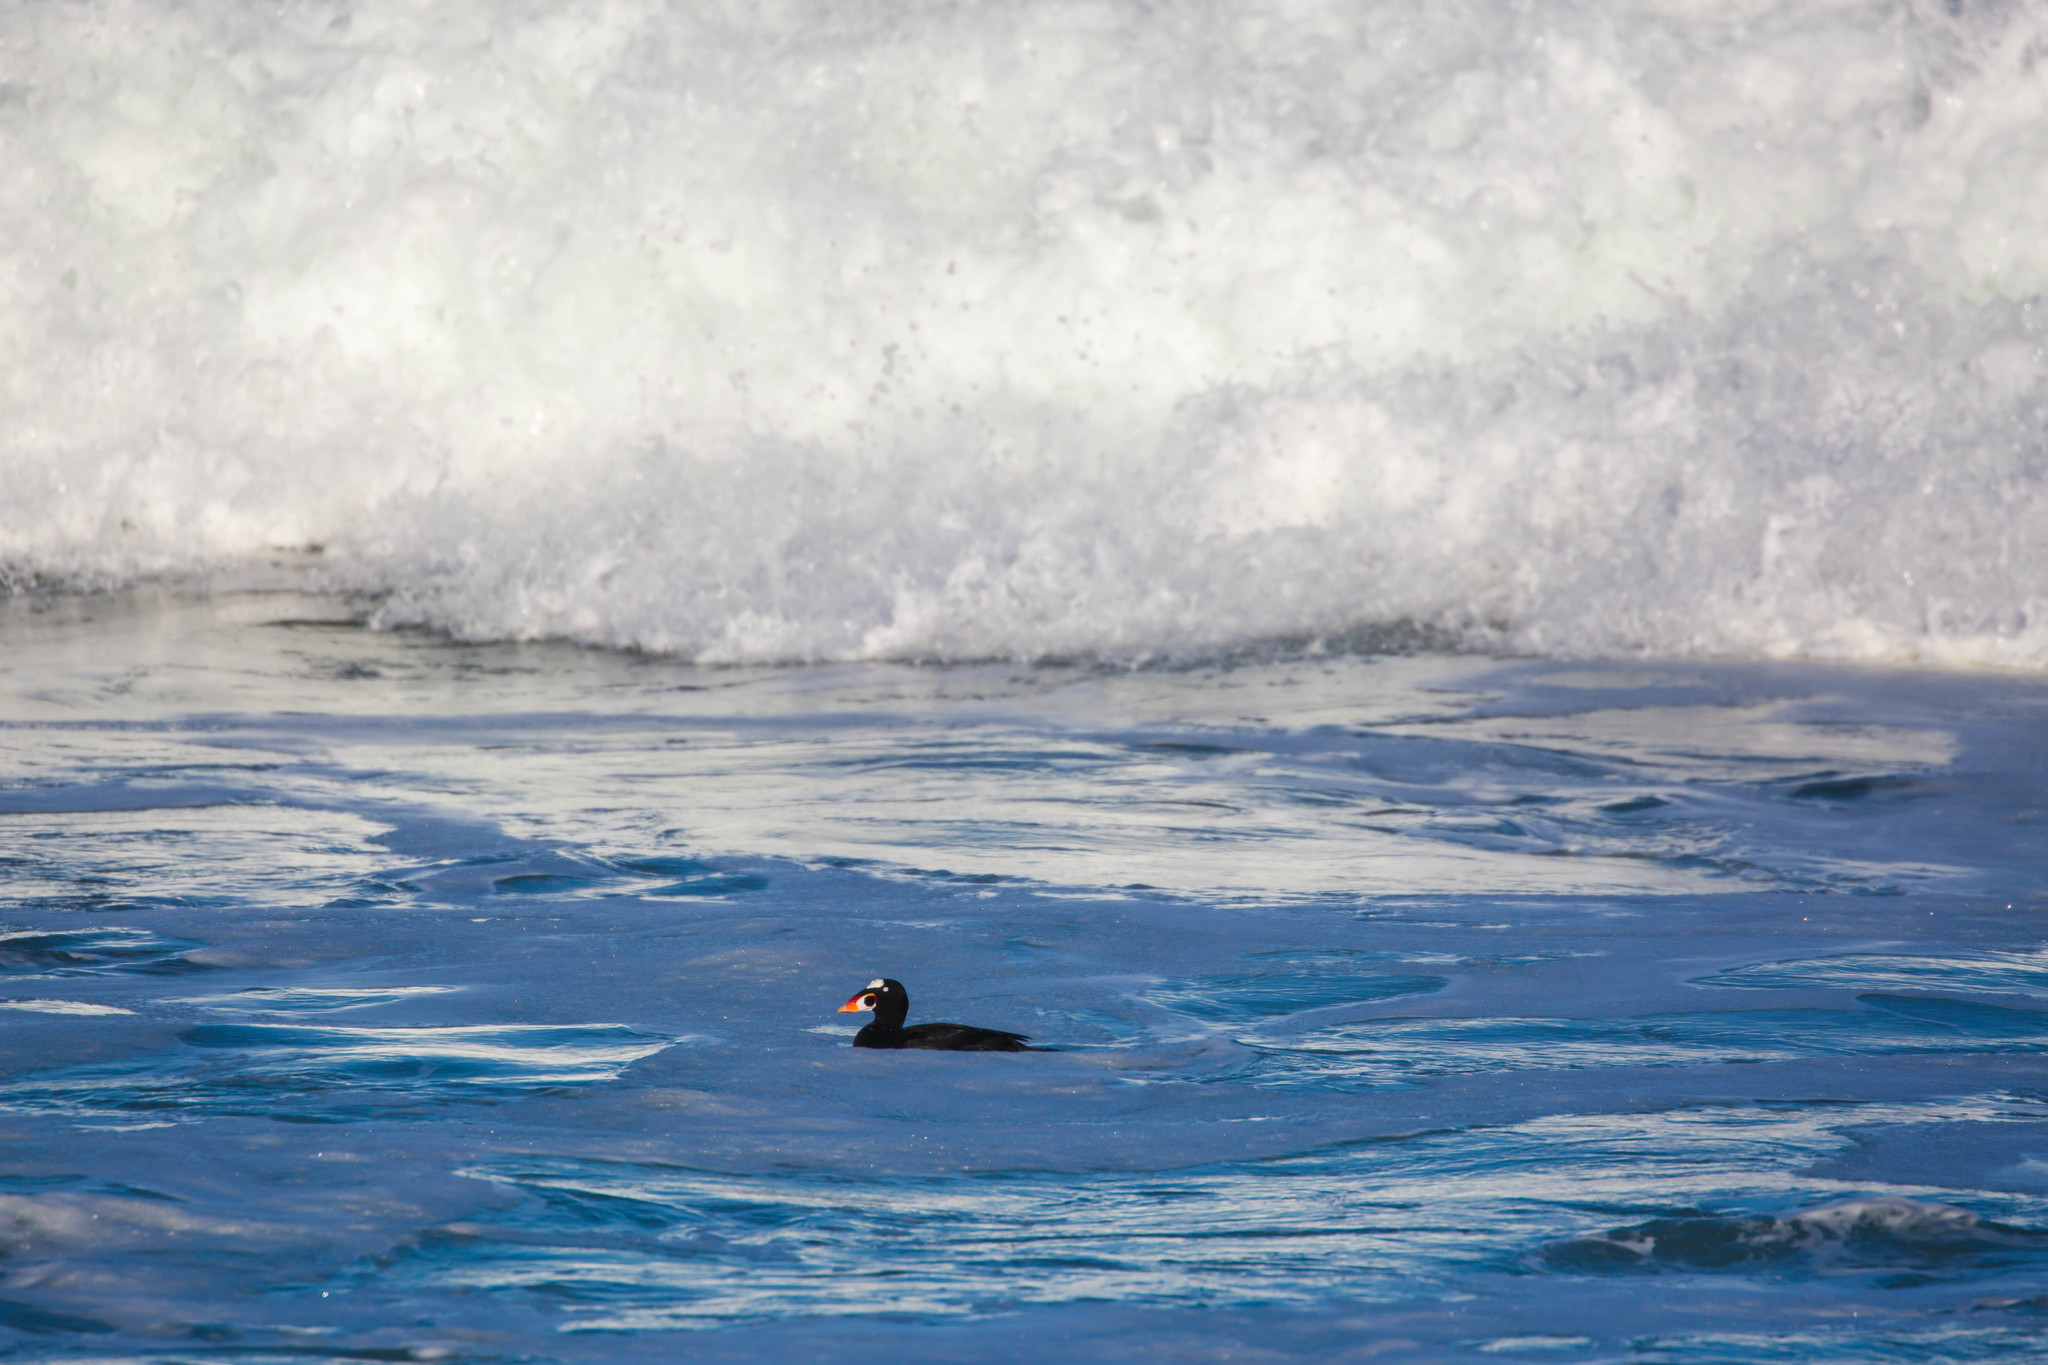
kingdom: Animalia
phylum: Chordata
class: Aves
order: Anseriformes
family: Anatidae
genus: Melanitta
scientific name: Melanitta perspicillata
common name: Surf scoter
